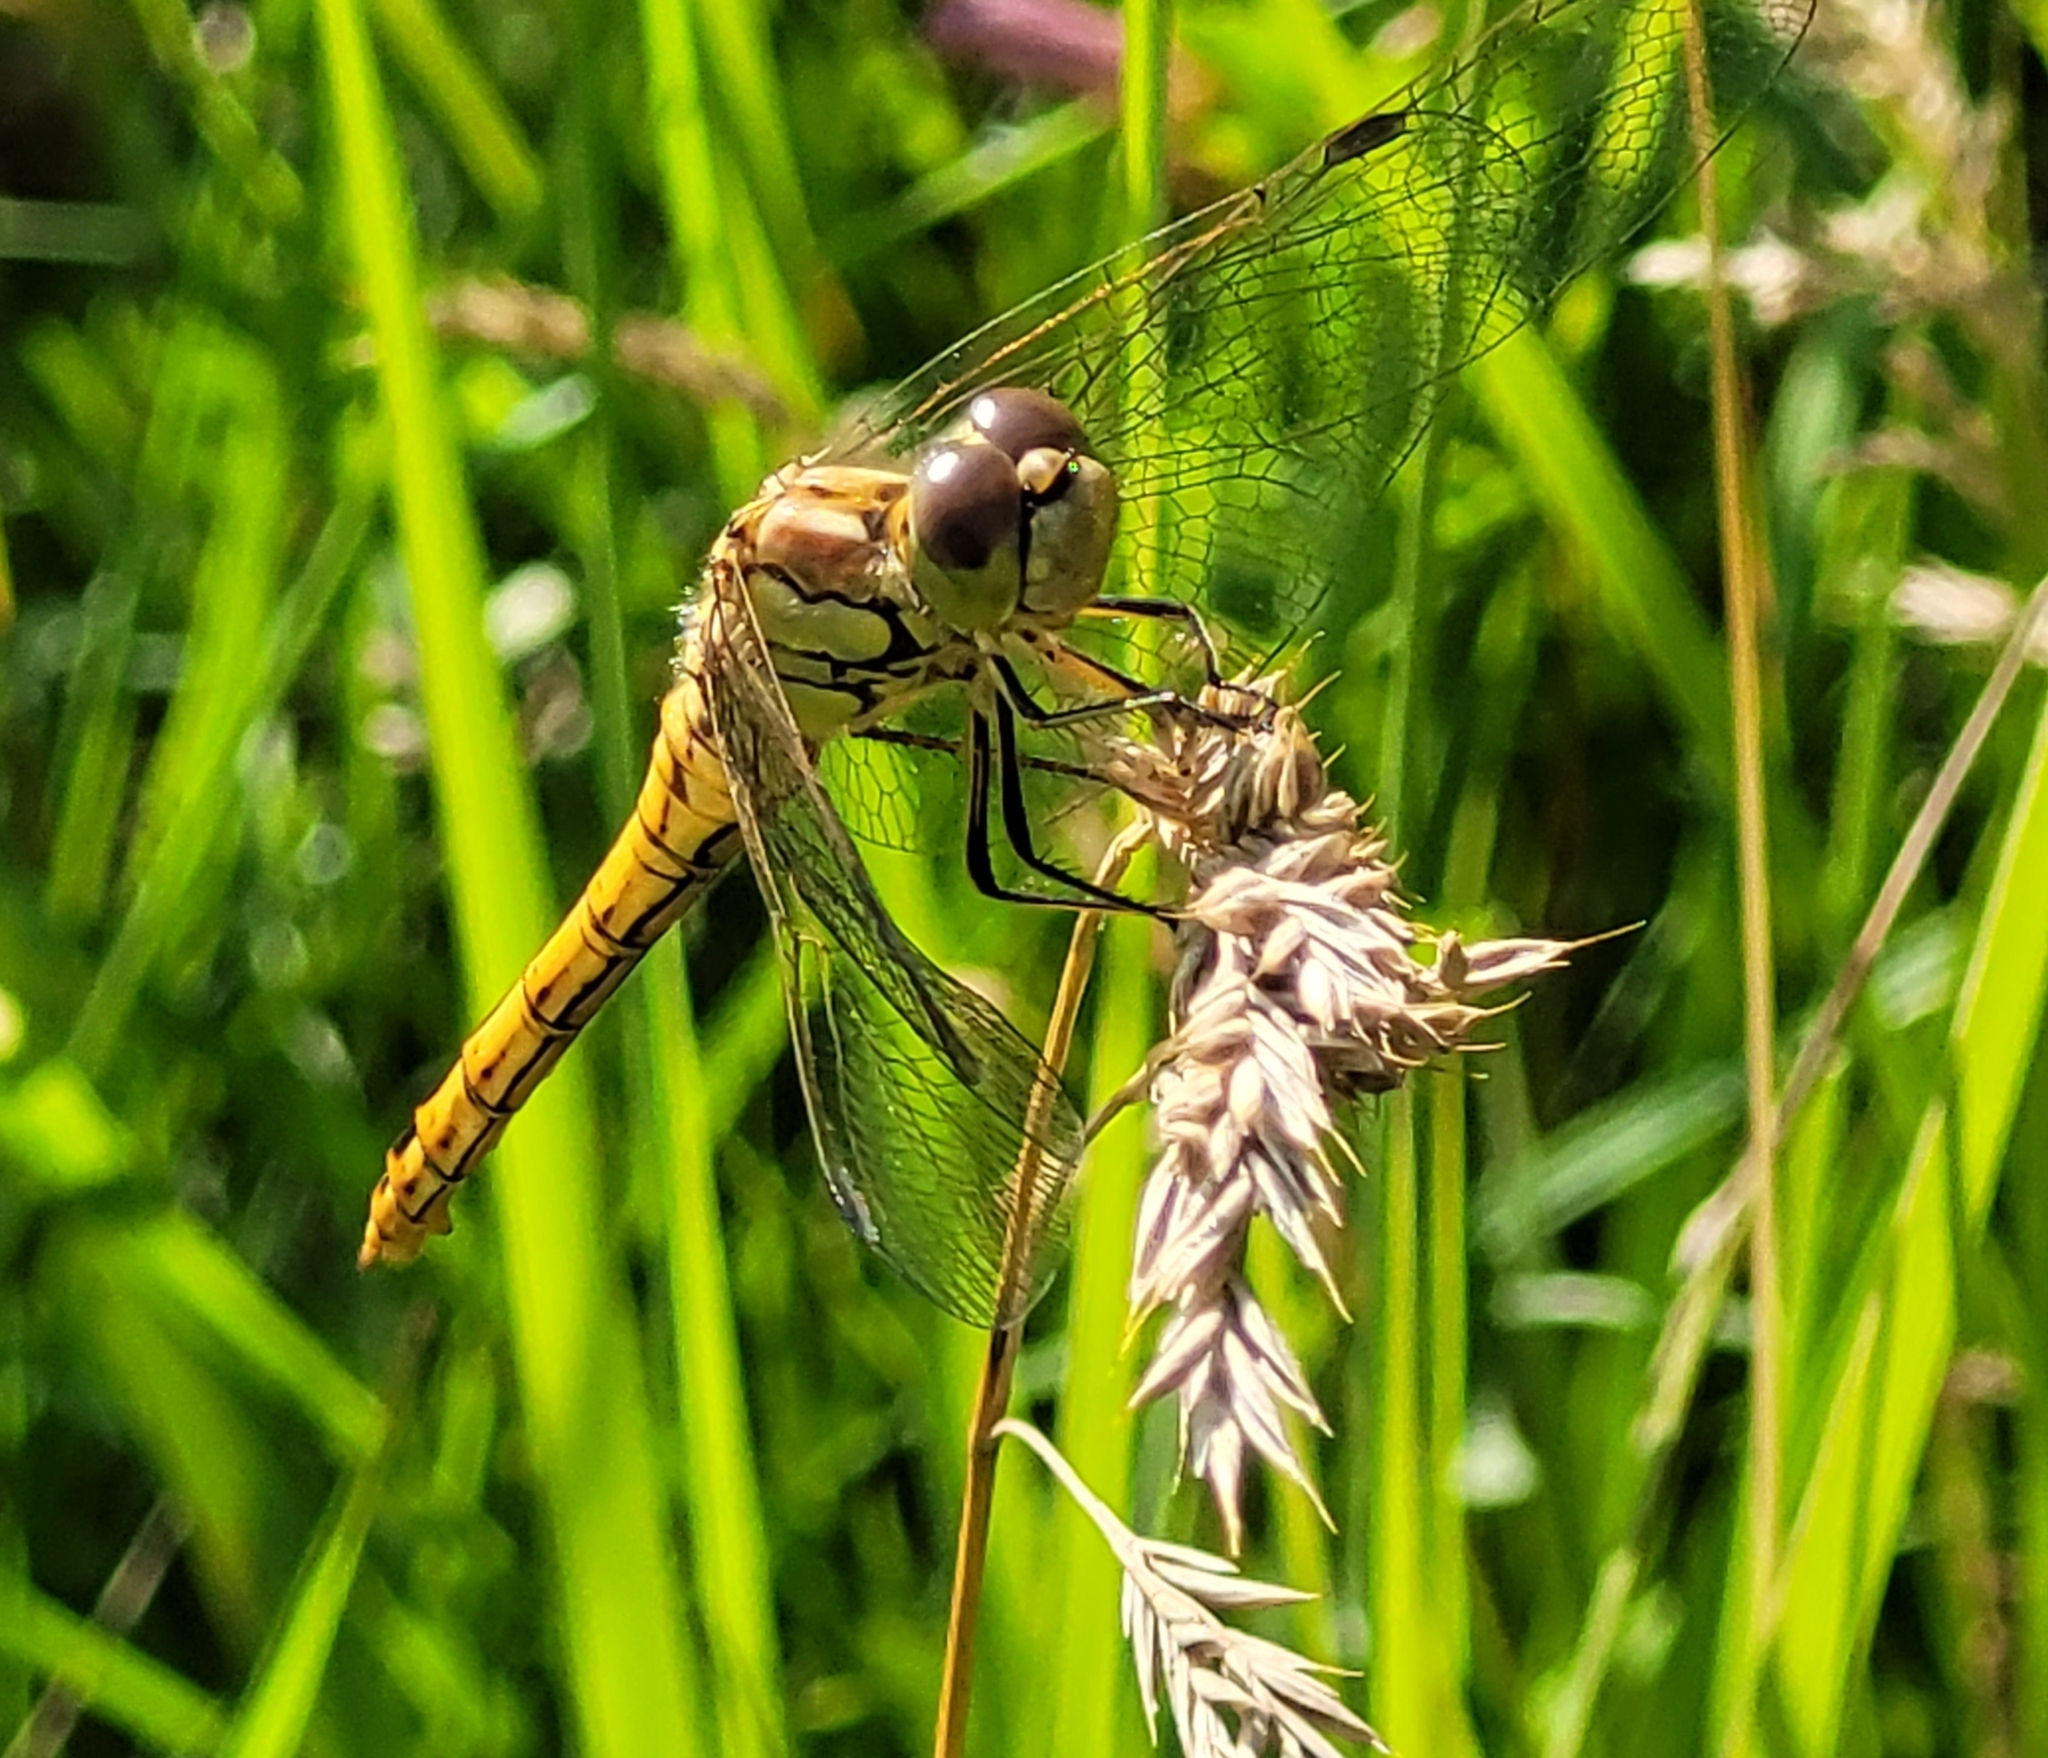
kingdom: Animalia
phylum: Arthropoda
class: Insecta
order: Odonata
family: Libellulidae
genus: Sympetrum
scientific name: Sympetrum vulgatum
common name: Vagrant darter
